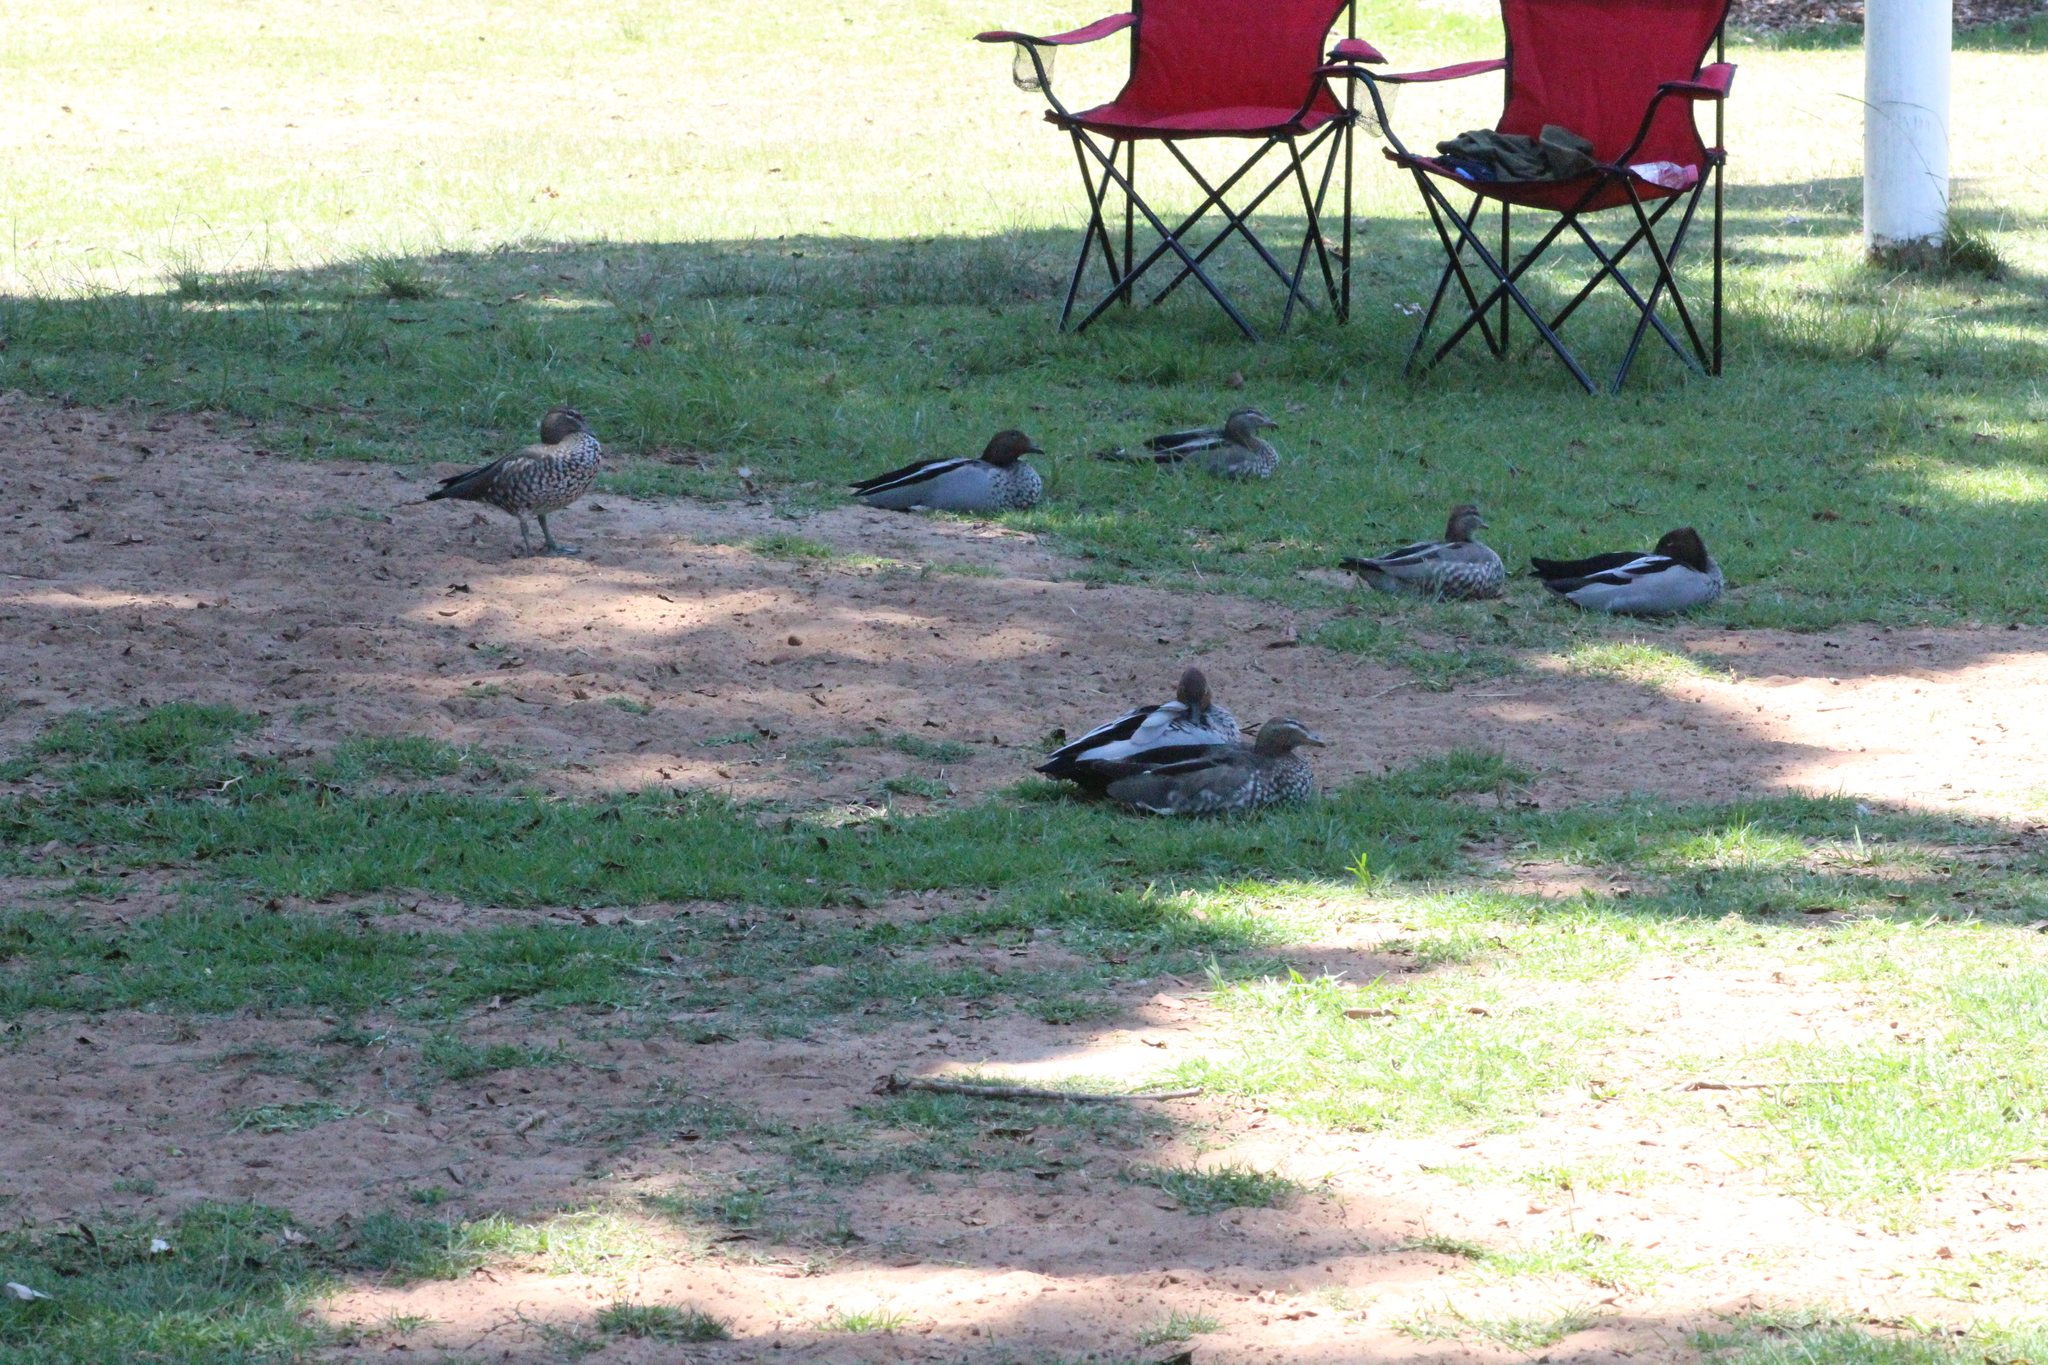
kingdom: Animalia
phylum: Chordata
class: Aves
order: Anseriformes
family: Anatidae
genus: Chenonetta
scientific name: Chenonetta jubata
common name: Maned duck
